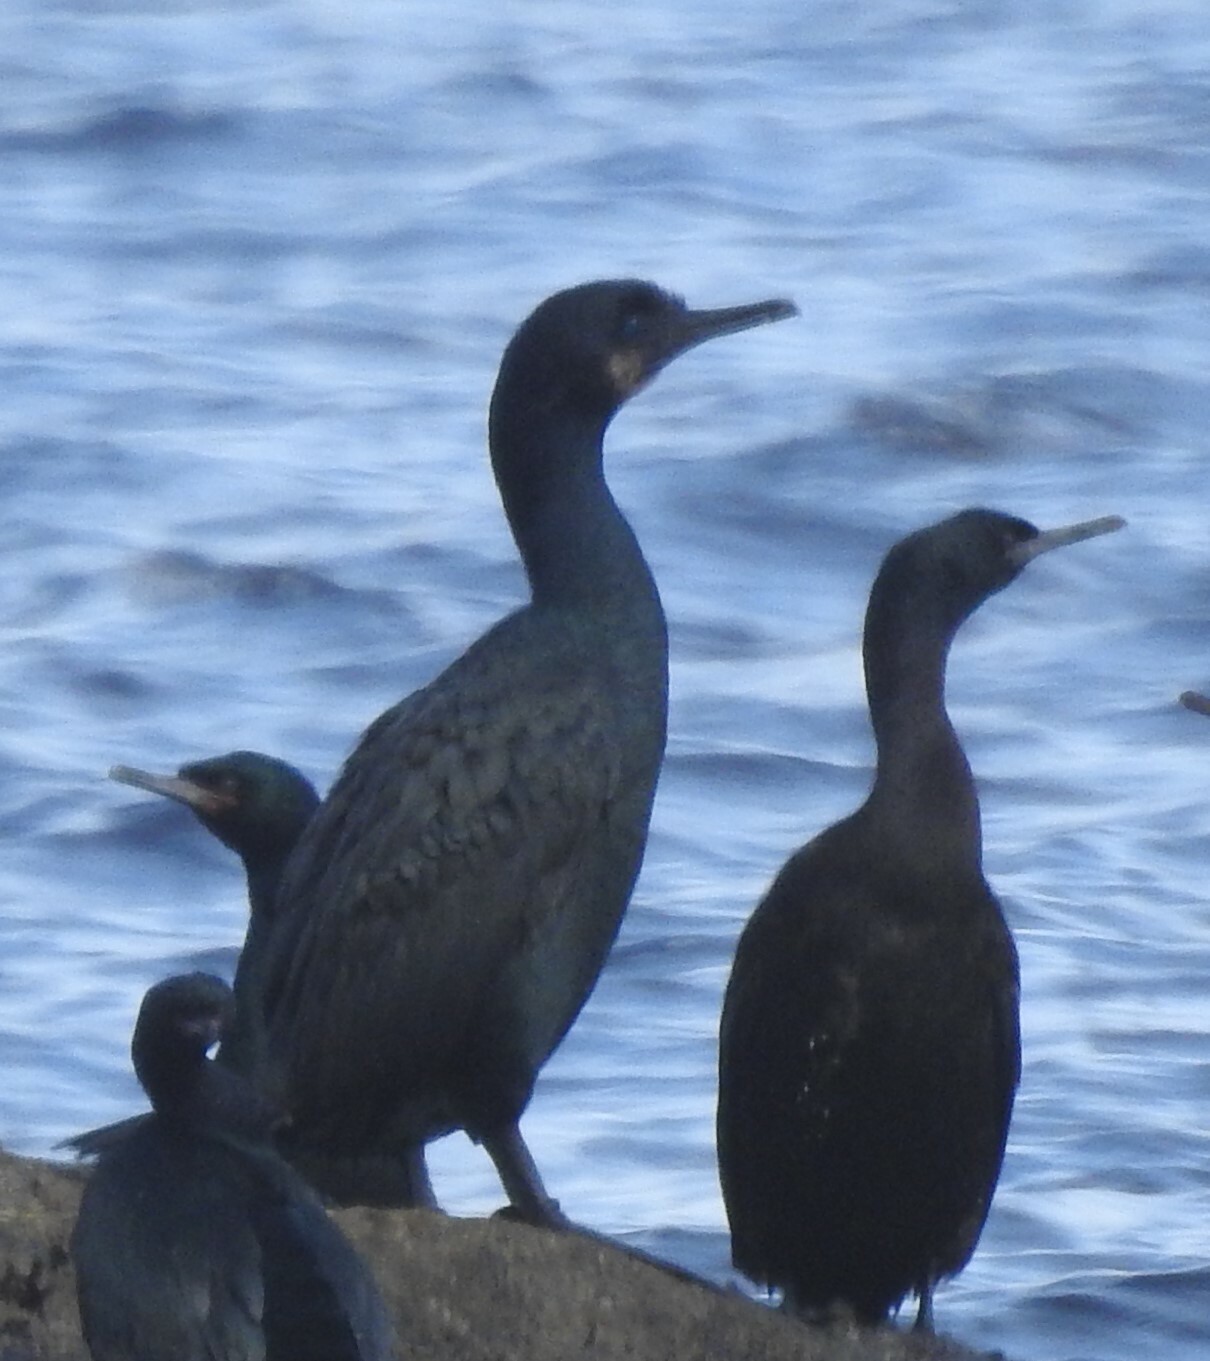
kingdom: Animalia
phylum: Chordata
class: Aves
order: Suliformes
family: Phalacrocoracidae
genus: Urile
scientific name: Urile penicillatus
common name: Brandt's cormorant
